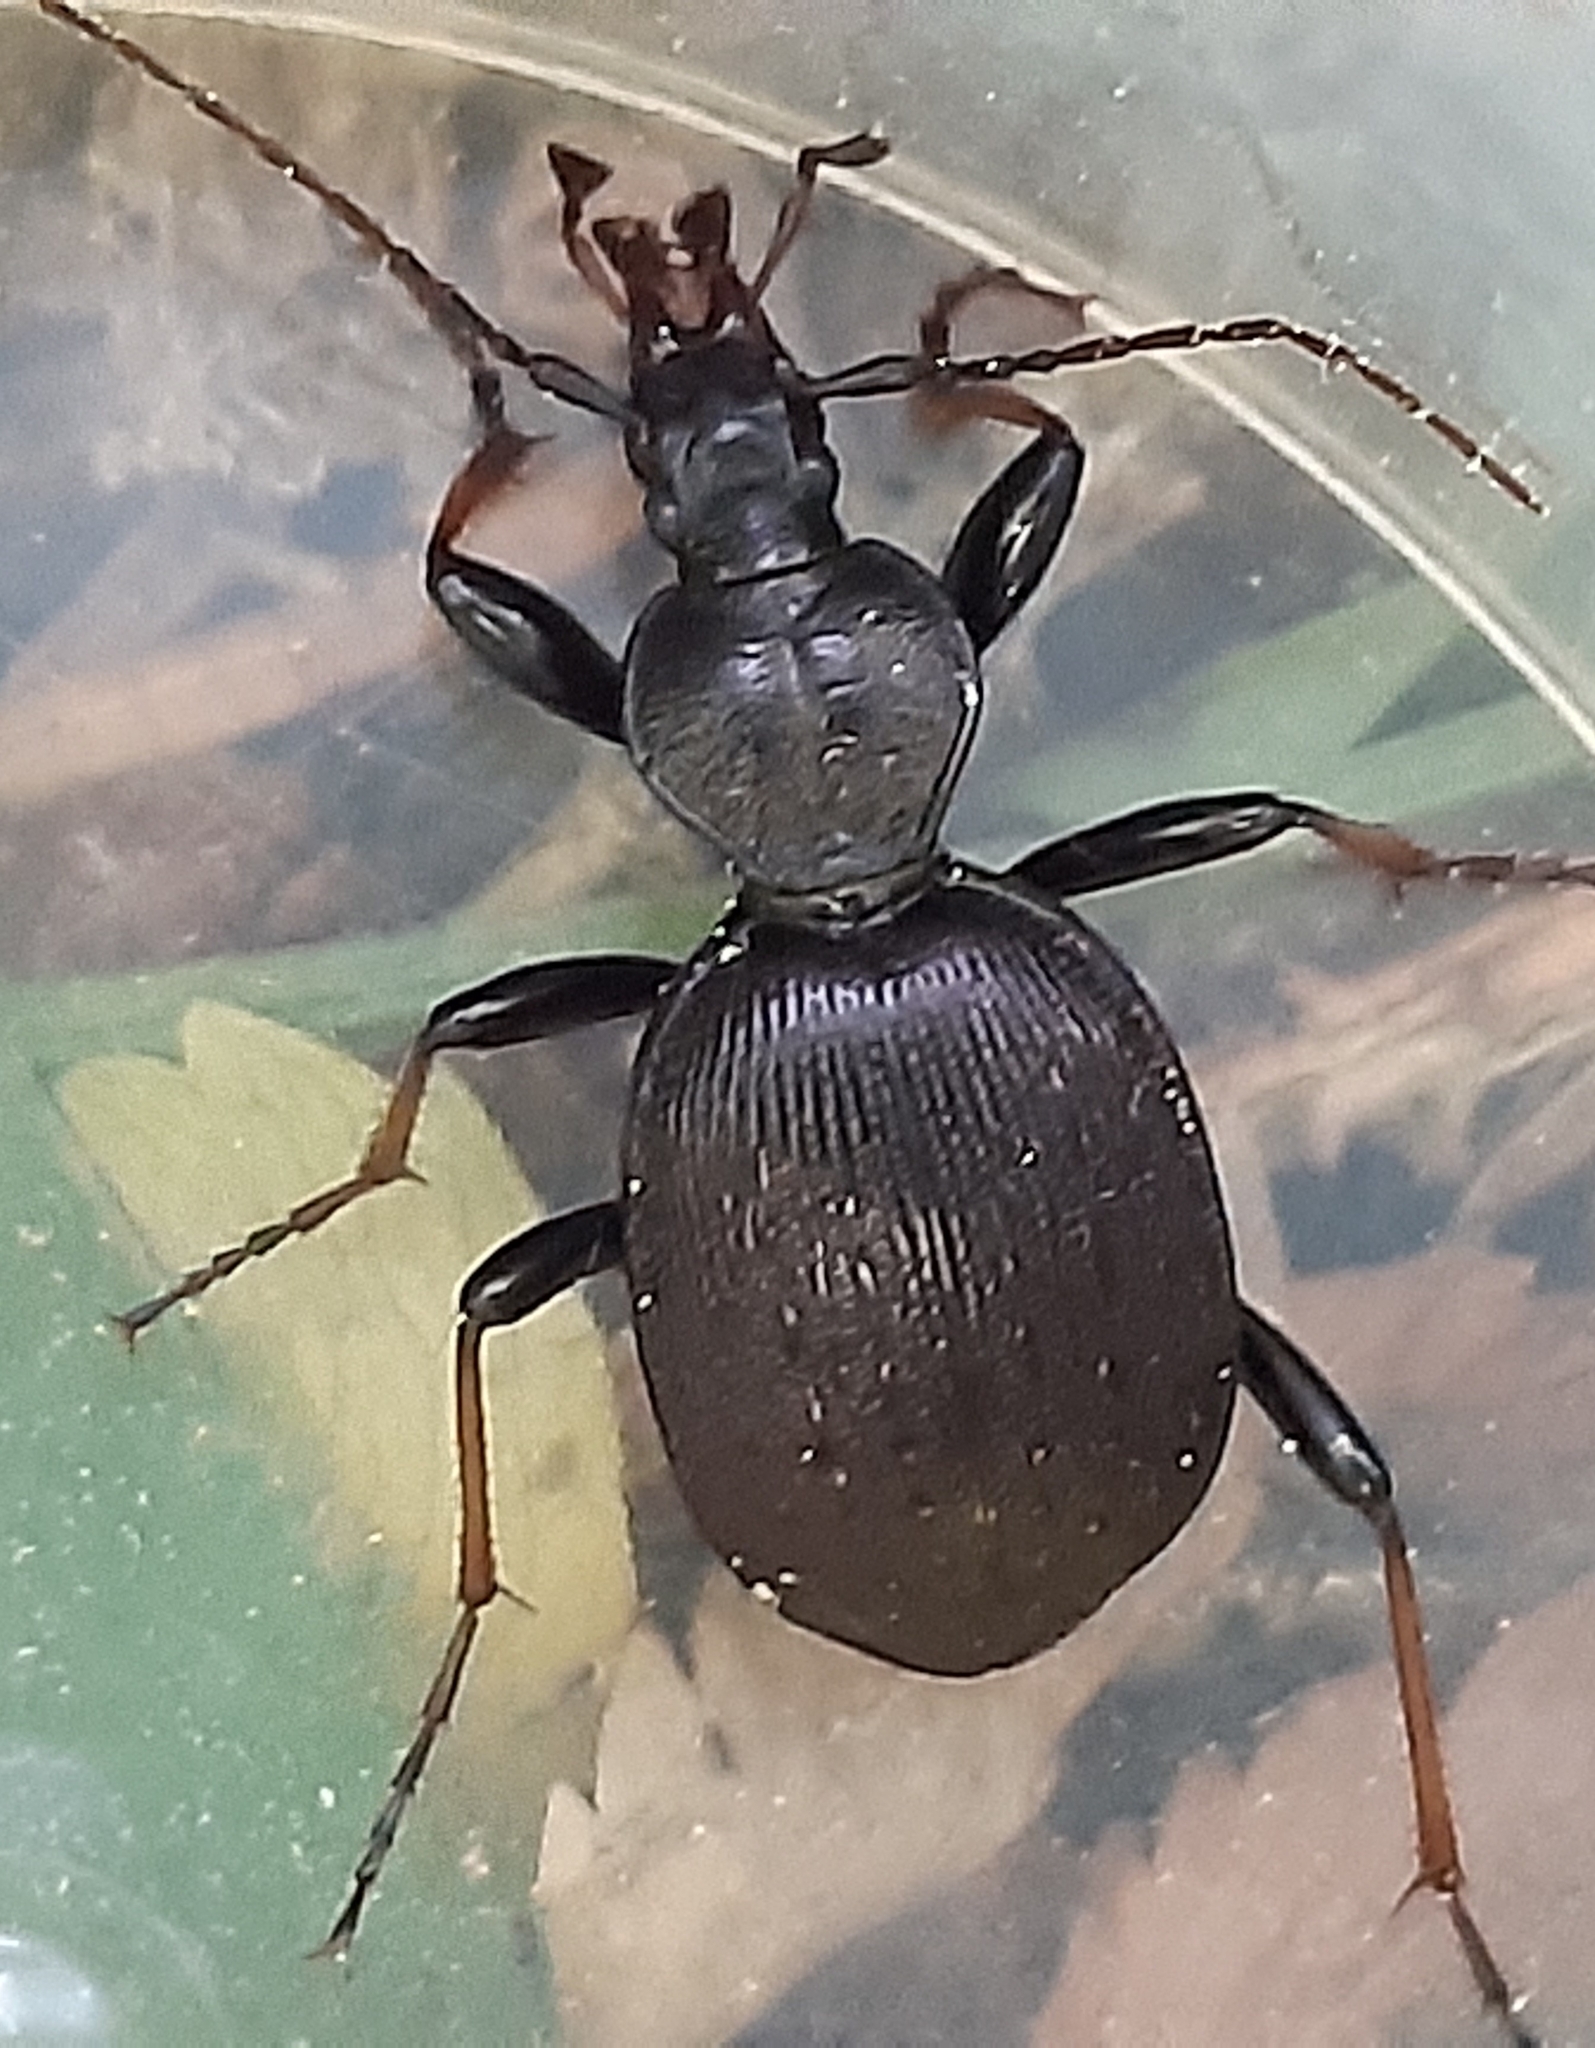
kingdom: Animalia
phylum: Arthropoda
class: Insecta
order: Coleoptera
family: Carabidae
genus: Cychrus
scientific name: Cychrus attenuatus
